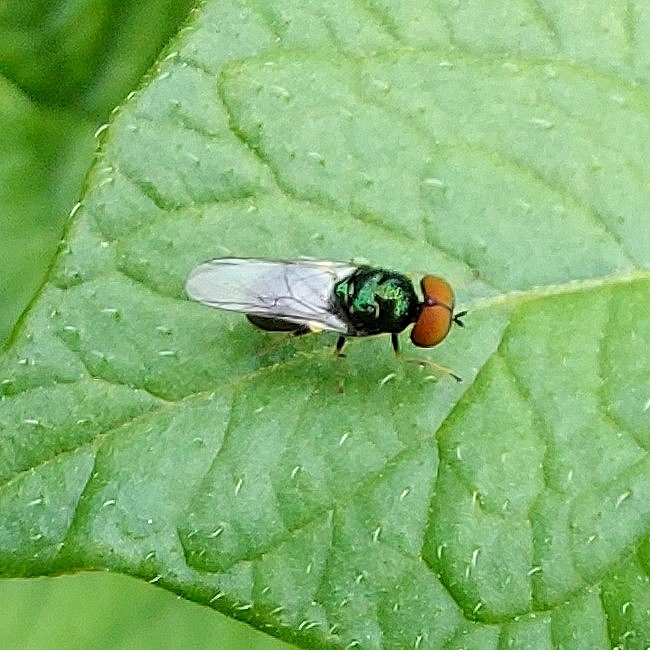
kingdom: Animalia
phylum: Arthropoda
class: Insecta
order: Diptera
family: Stratiomyidae
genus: Microchrysa
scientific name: Microchrysa polita
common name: Black-horned gem
